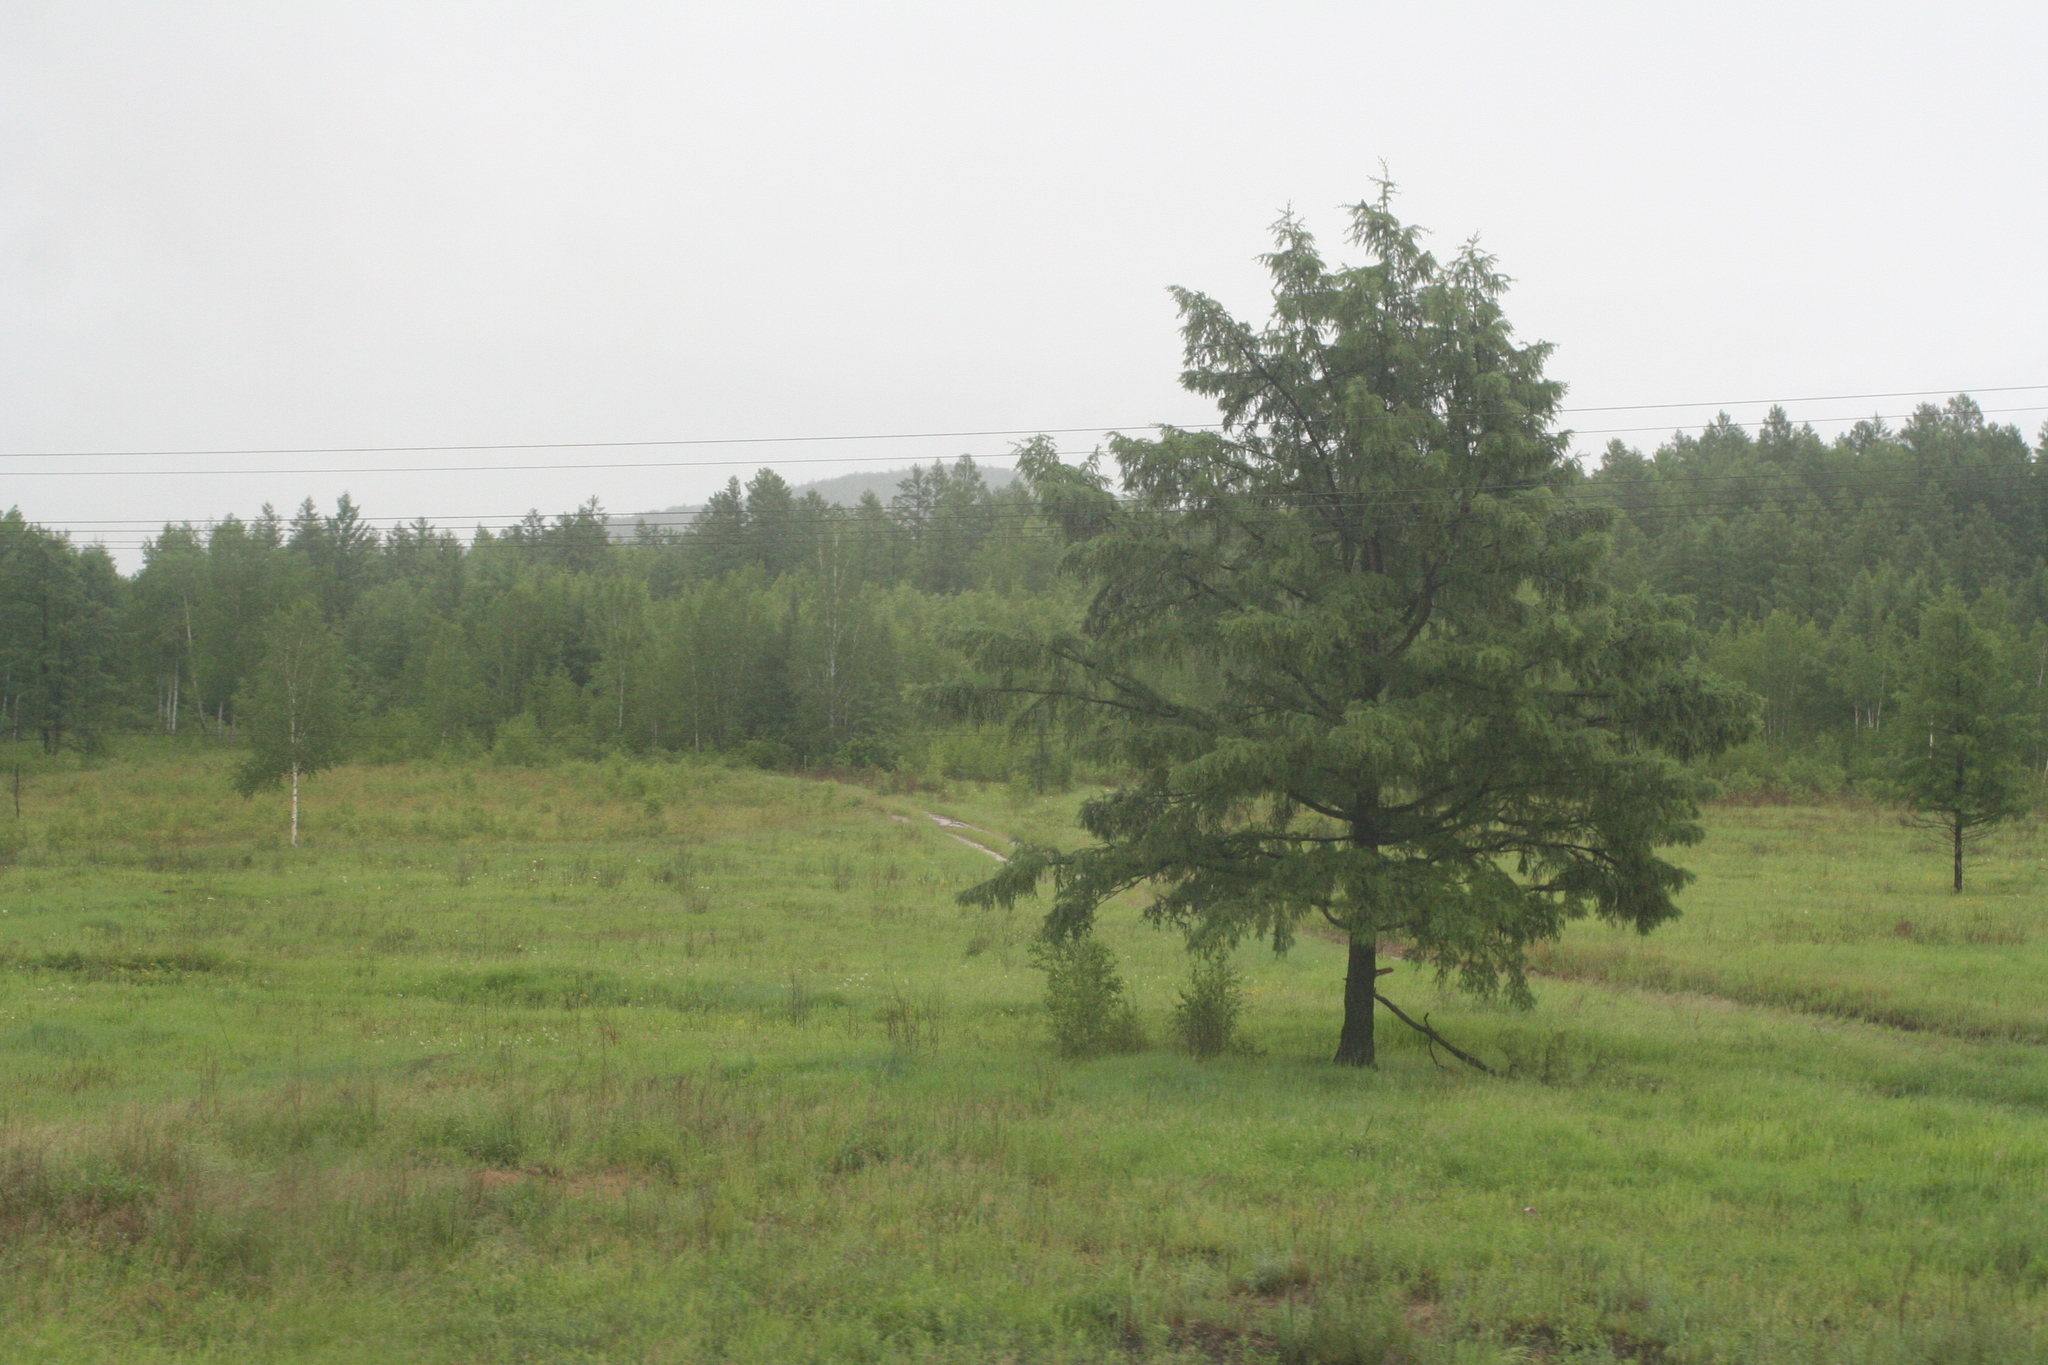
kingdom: Plantae
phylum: Tracheophyta
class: Pinopsida
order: Pinales
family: Pinaceae
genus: Larix
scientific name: Larix gmelinii
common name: Dahurian larch
